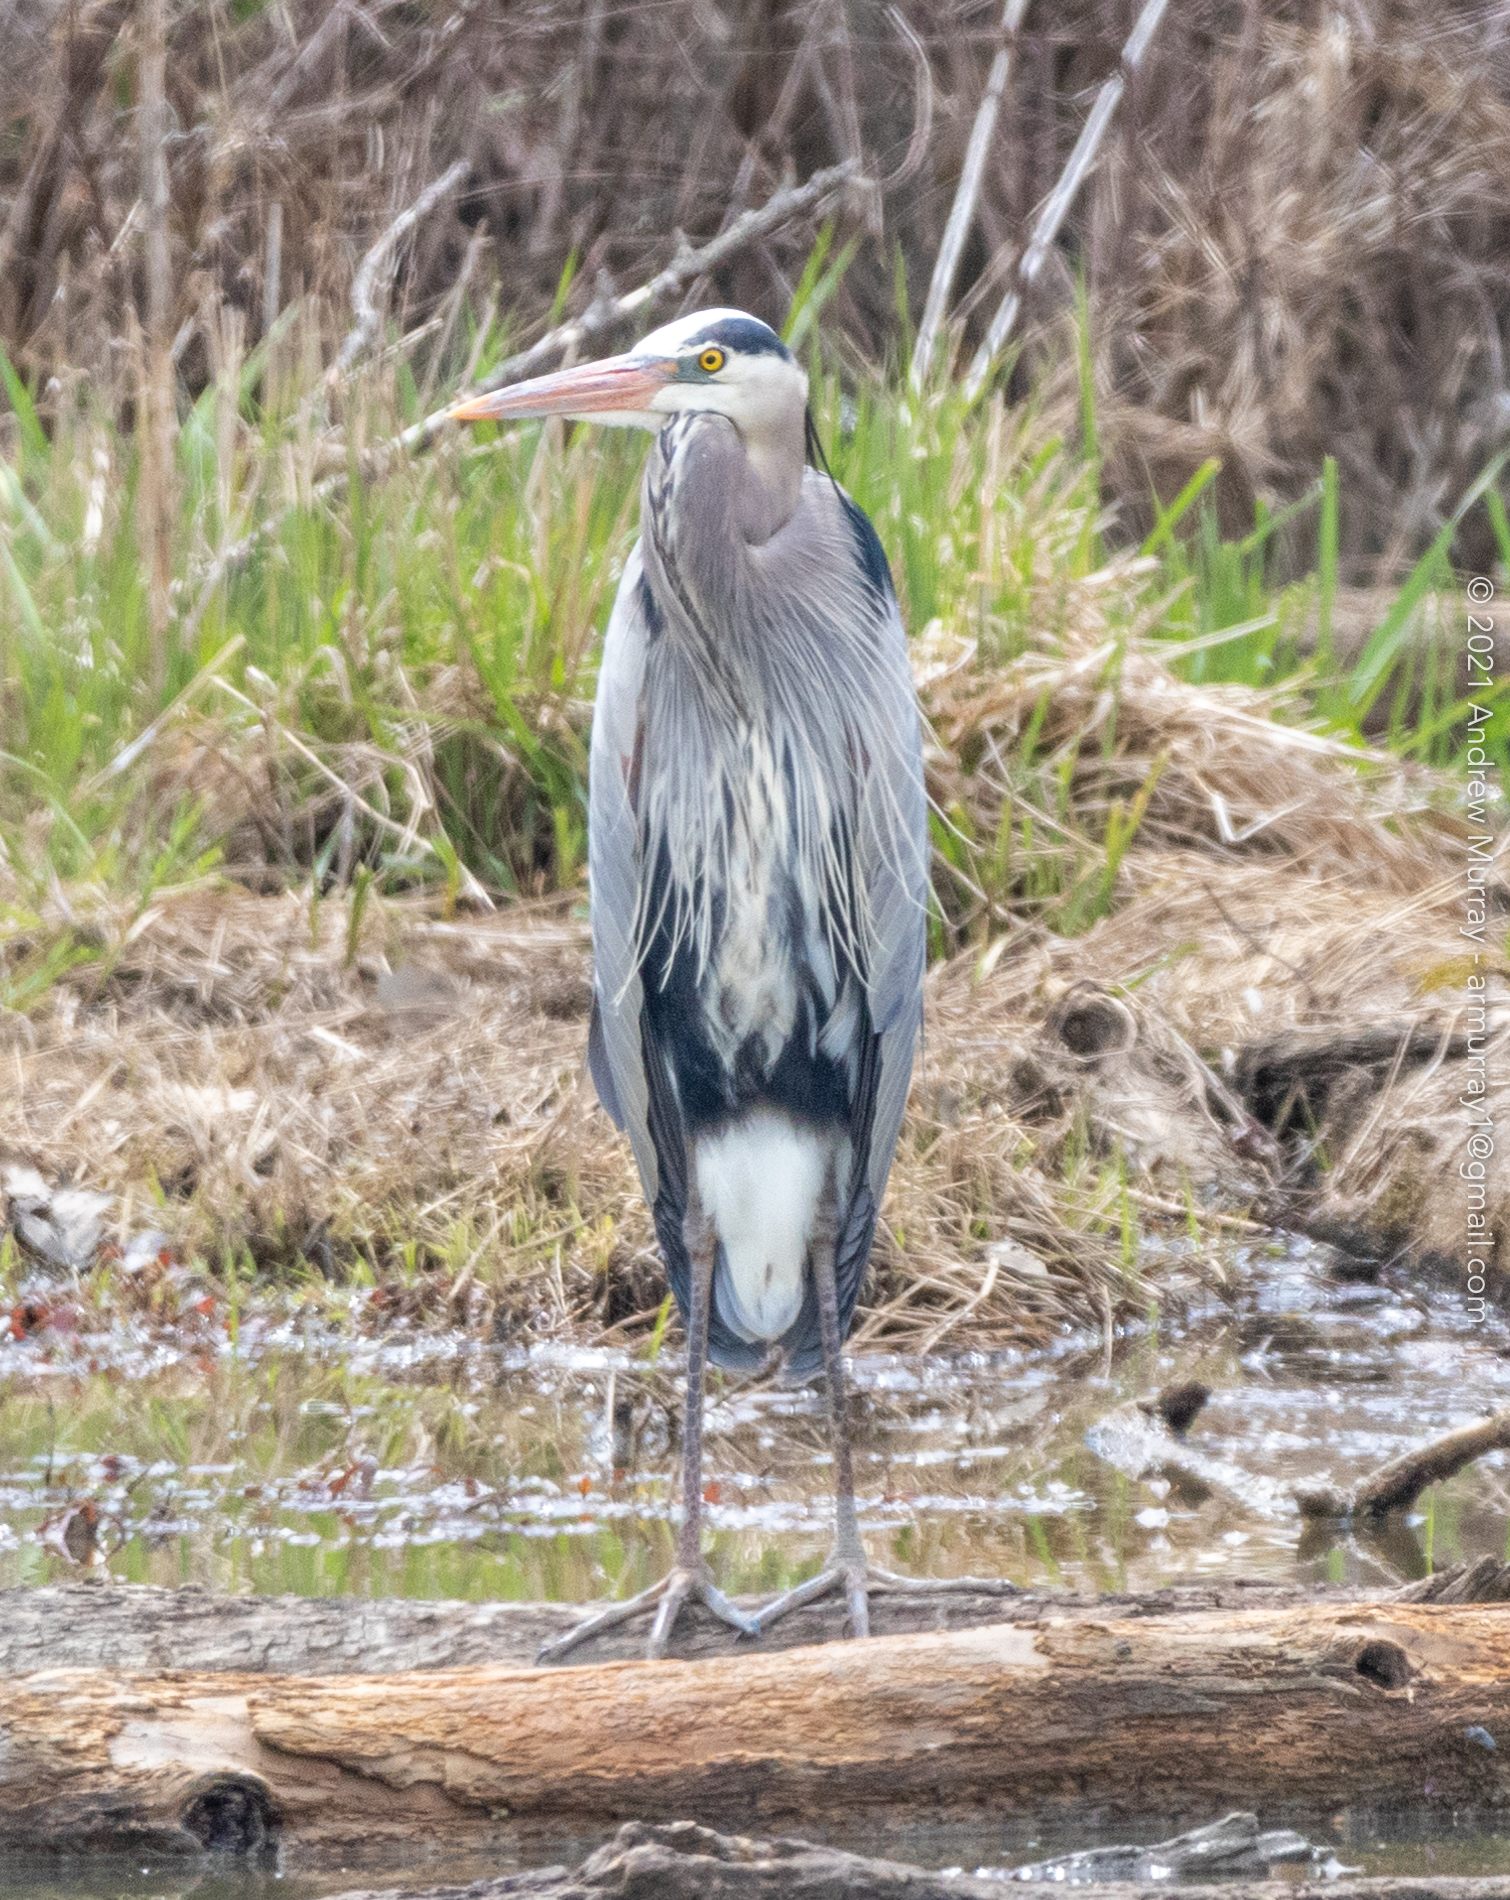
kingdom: Animalia
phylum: Chordata
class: Aves
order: Pelecaniformes
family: Ardeidae
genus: Ardea
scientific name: Ardea herodias
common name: Great blue heron
